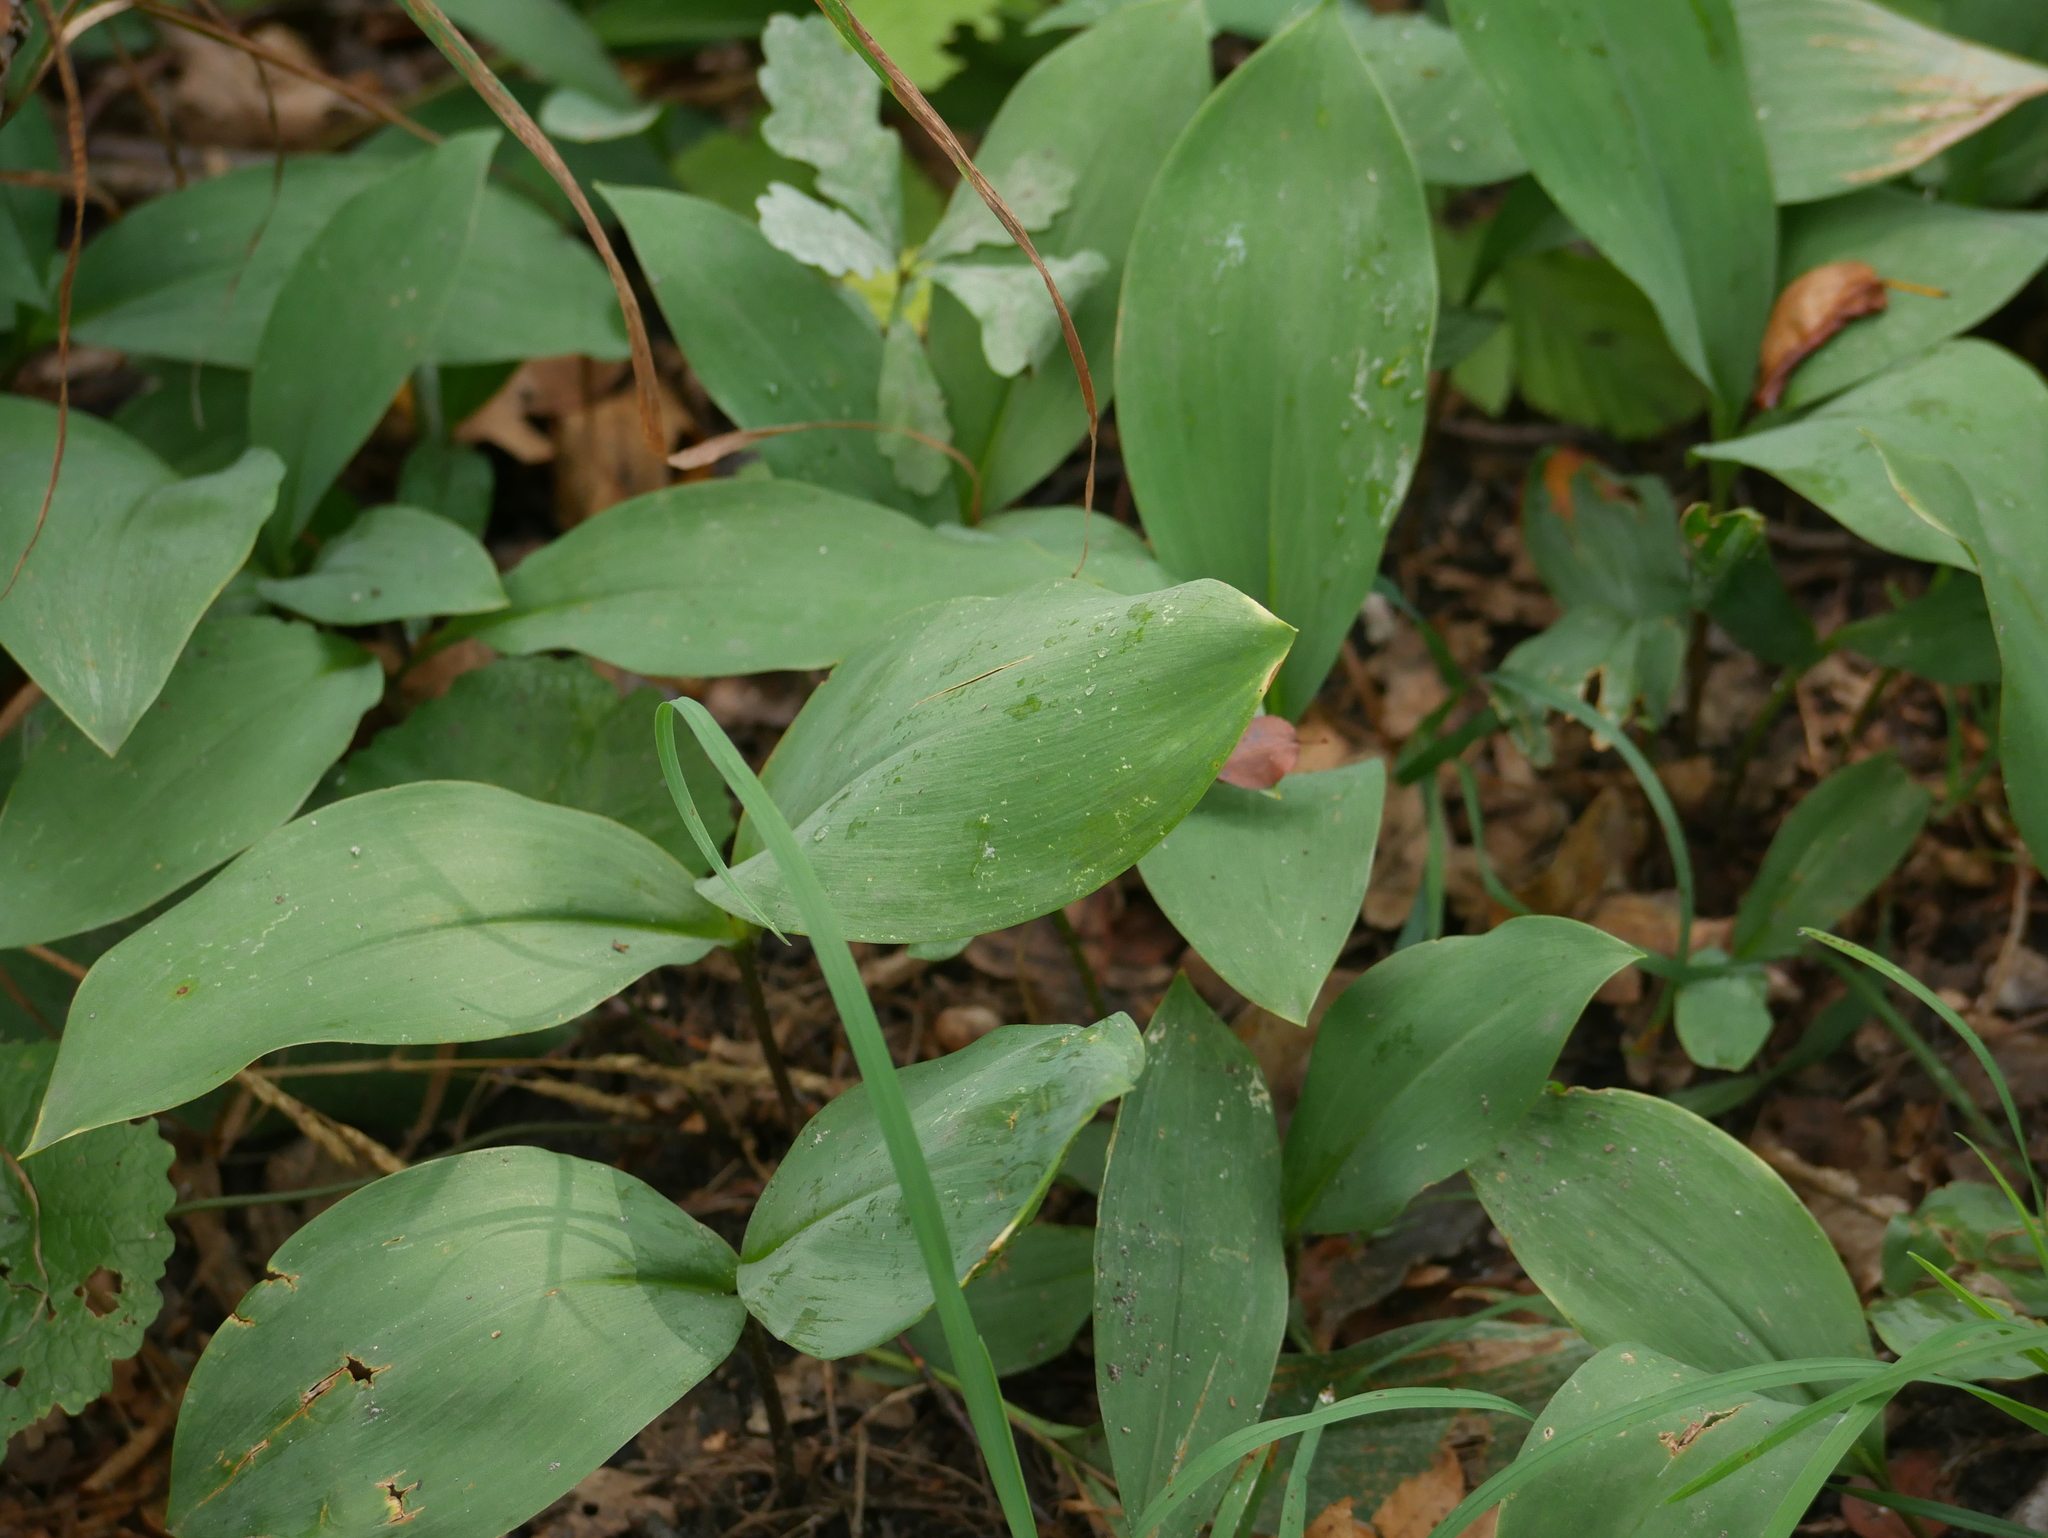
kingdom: Plantae
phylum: Tracheophyta
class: Liliopsida
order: Asparagales
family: Asparagaceae
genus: Convallaria
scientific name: Convallaria majalis
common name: Lily-of-the-valley
